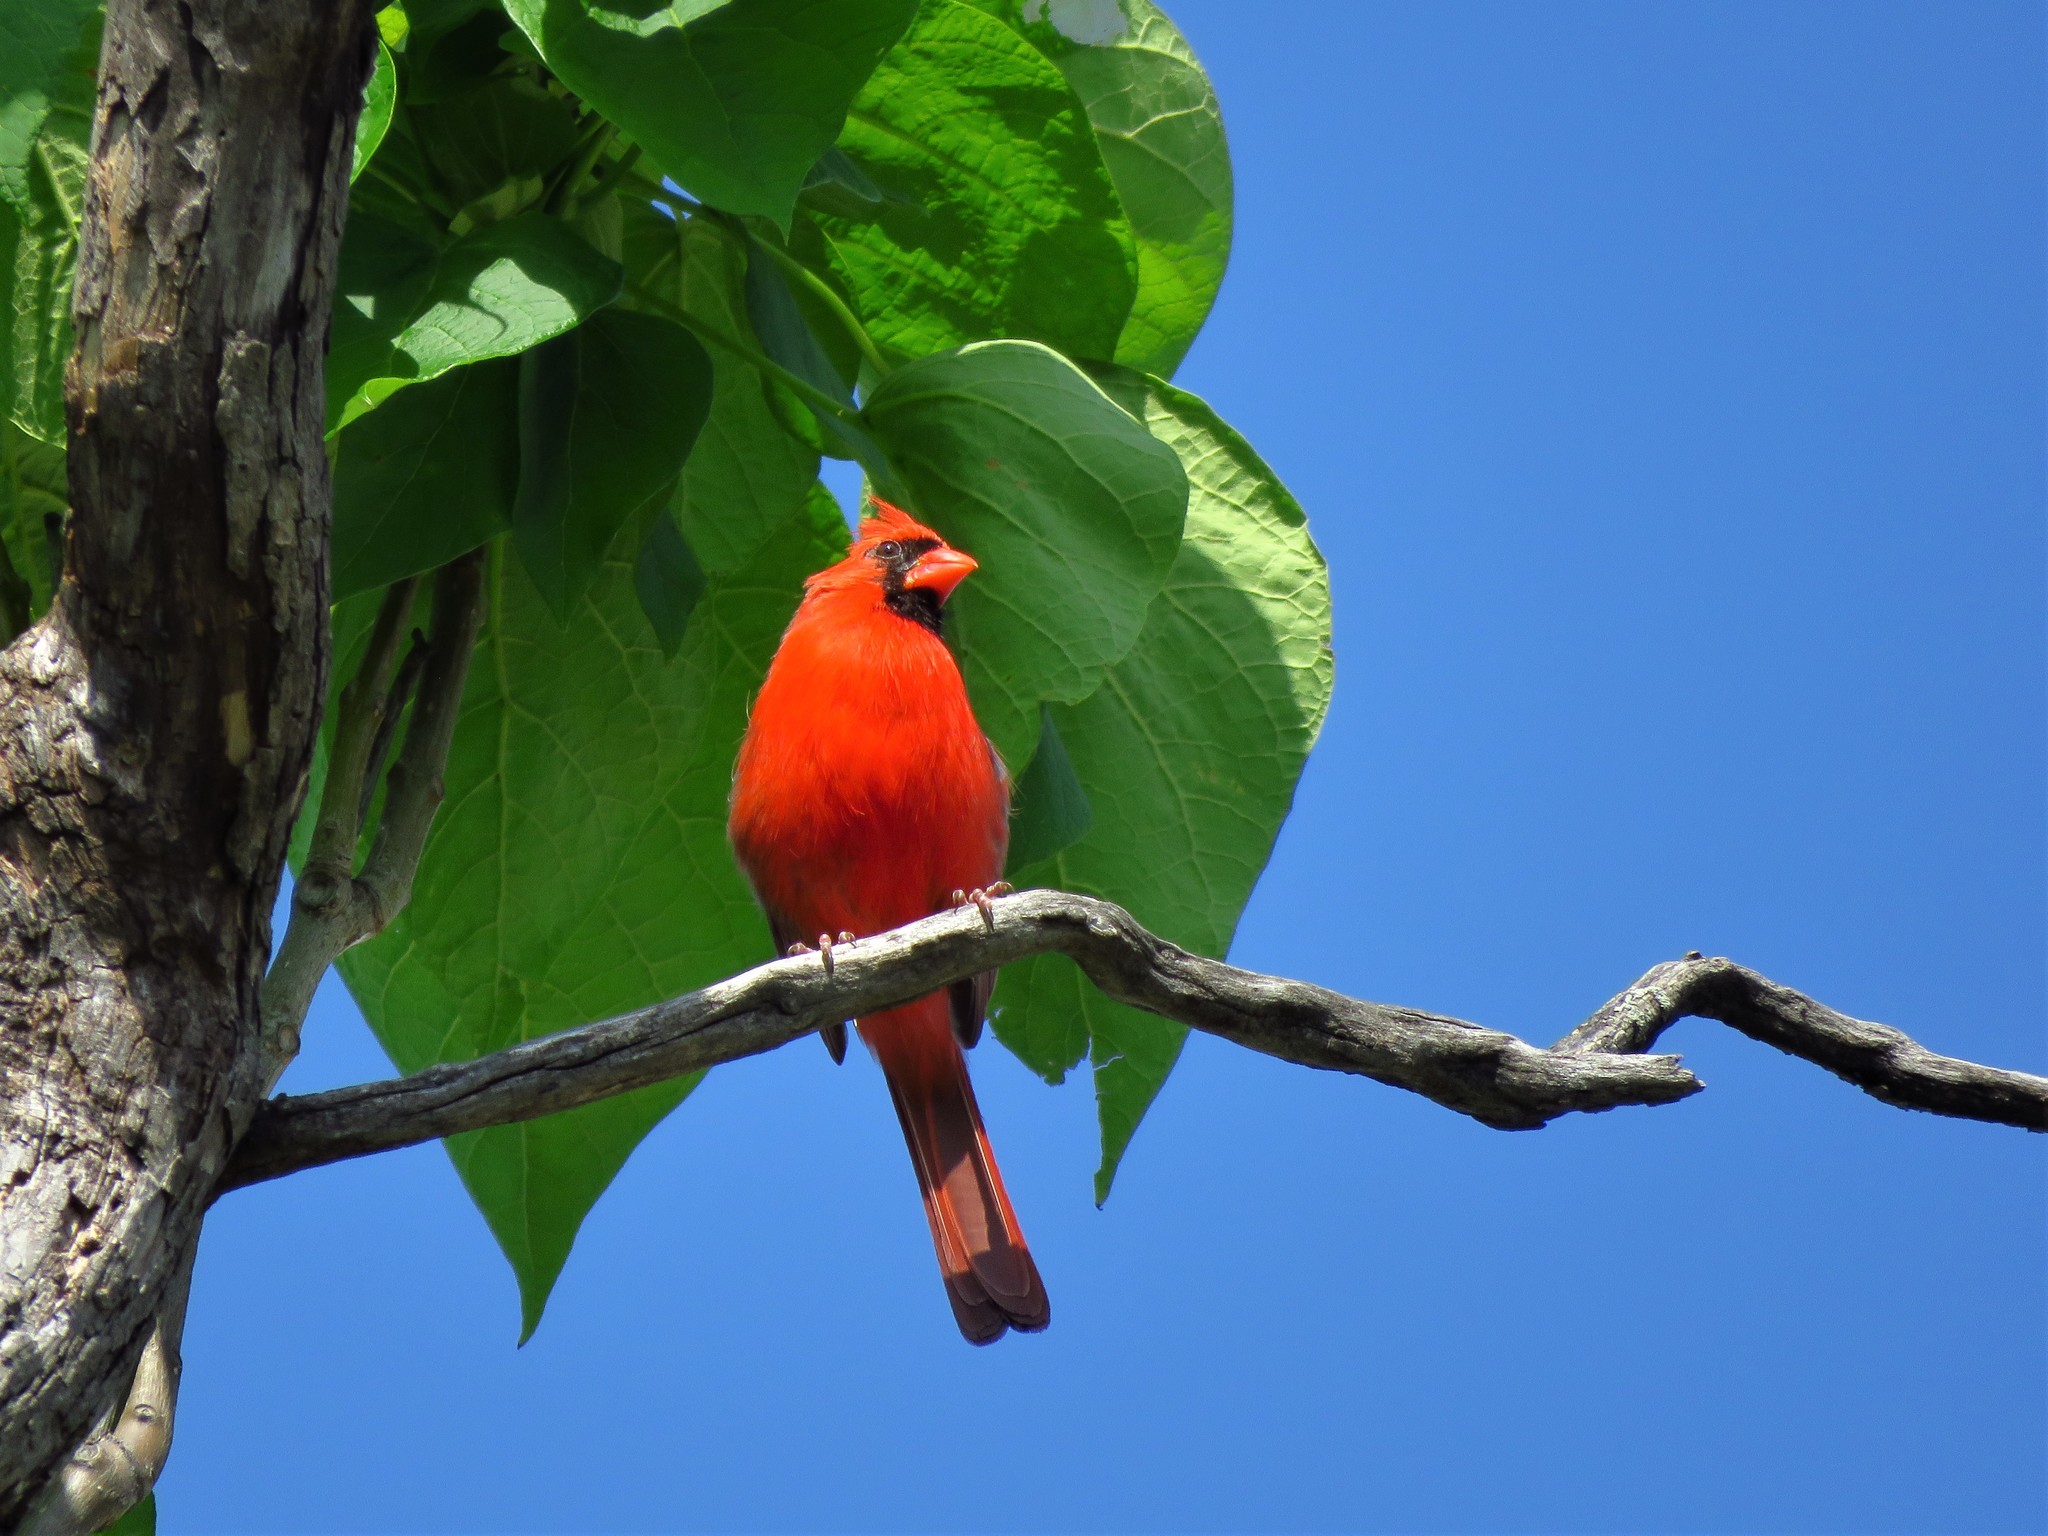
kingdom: Animalia
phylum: Chordata
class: Aves
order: Passeriformes
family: Cardinalidae
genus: Cardinalis
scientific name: Cardinalis cardinalis
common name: Northern cardinal
